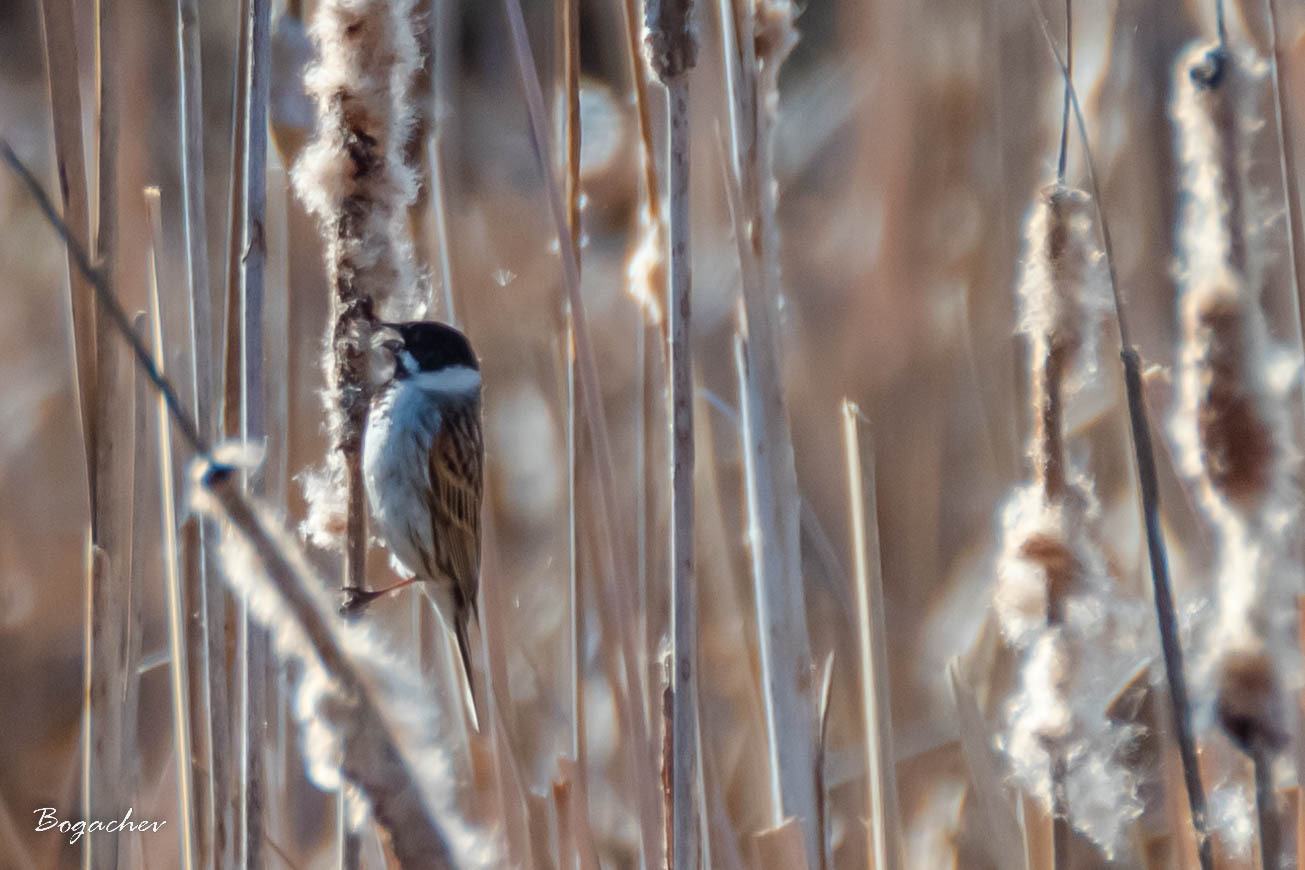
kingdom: Animalia
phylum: Chordata
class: Aves
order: Passeriformes
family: Emberizidae
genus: Emberiza
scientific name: Emberiza schoeniclus
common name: Reed bunting
